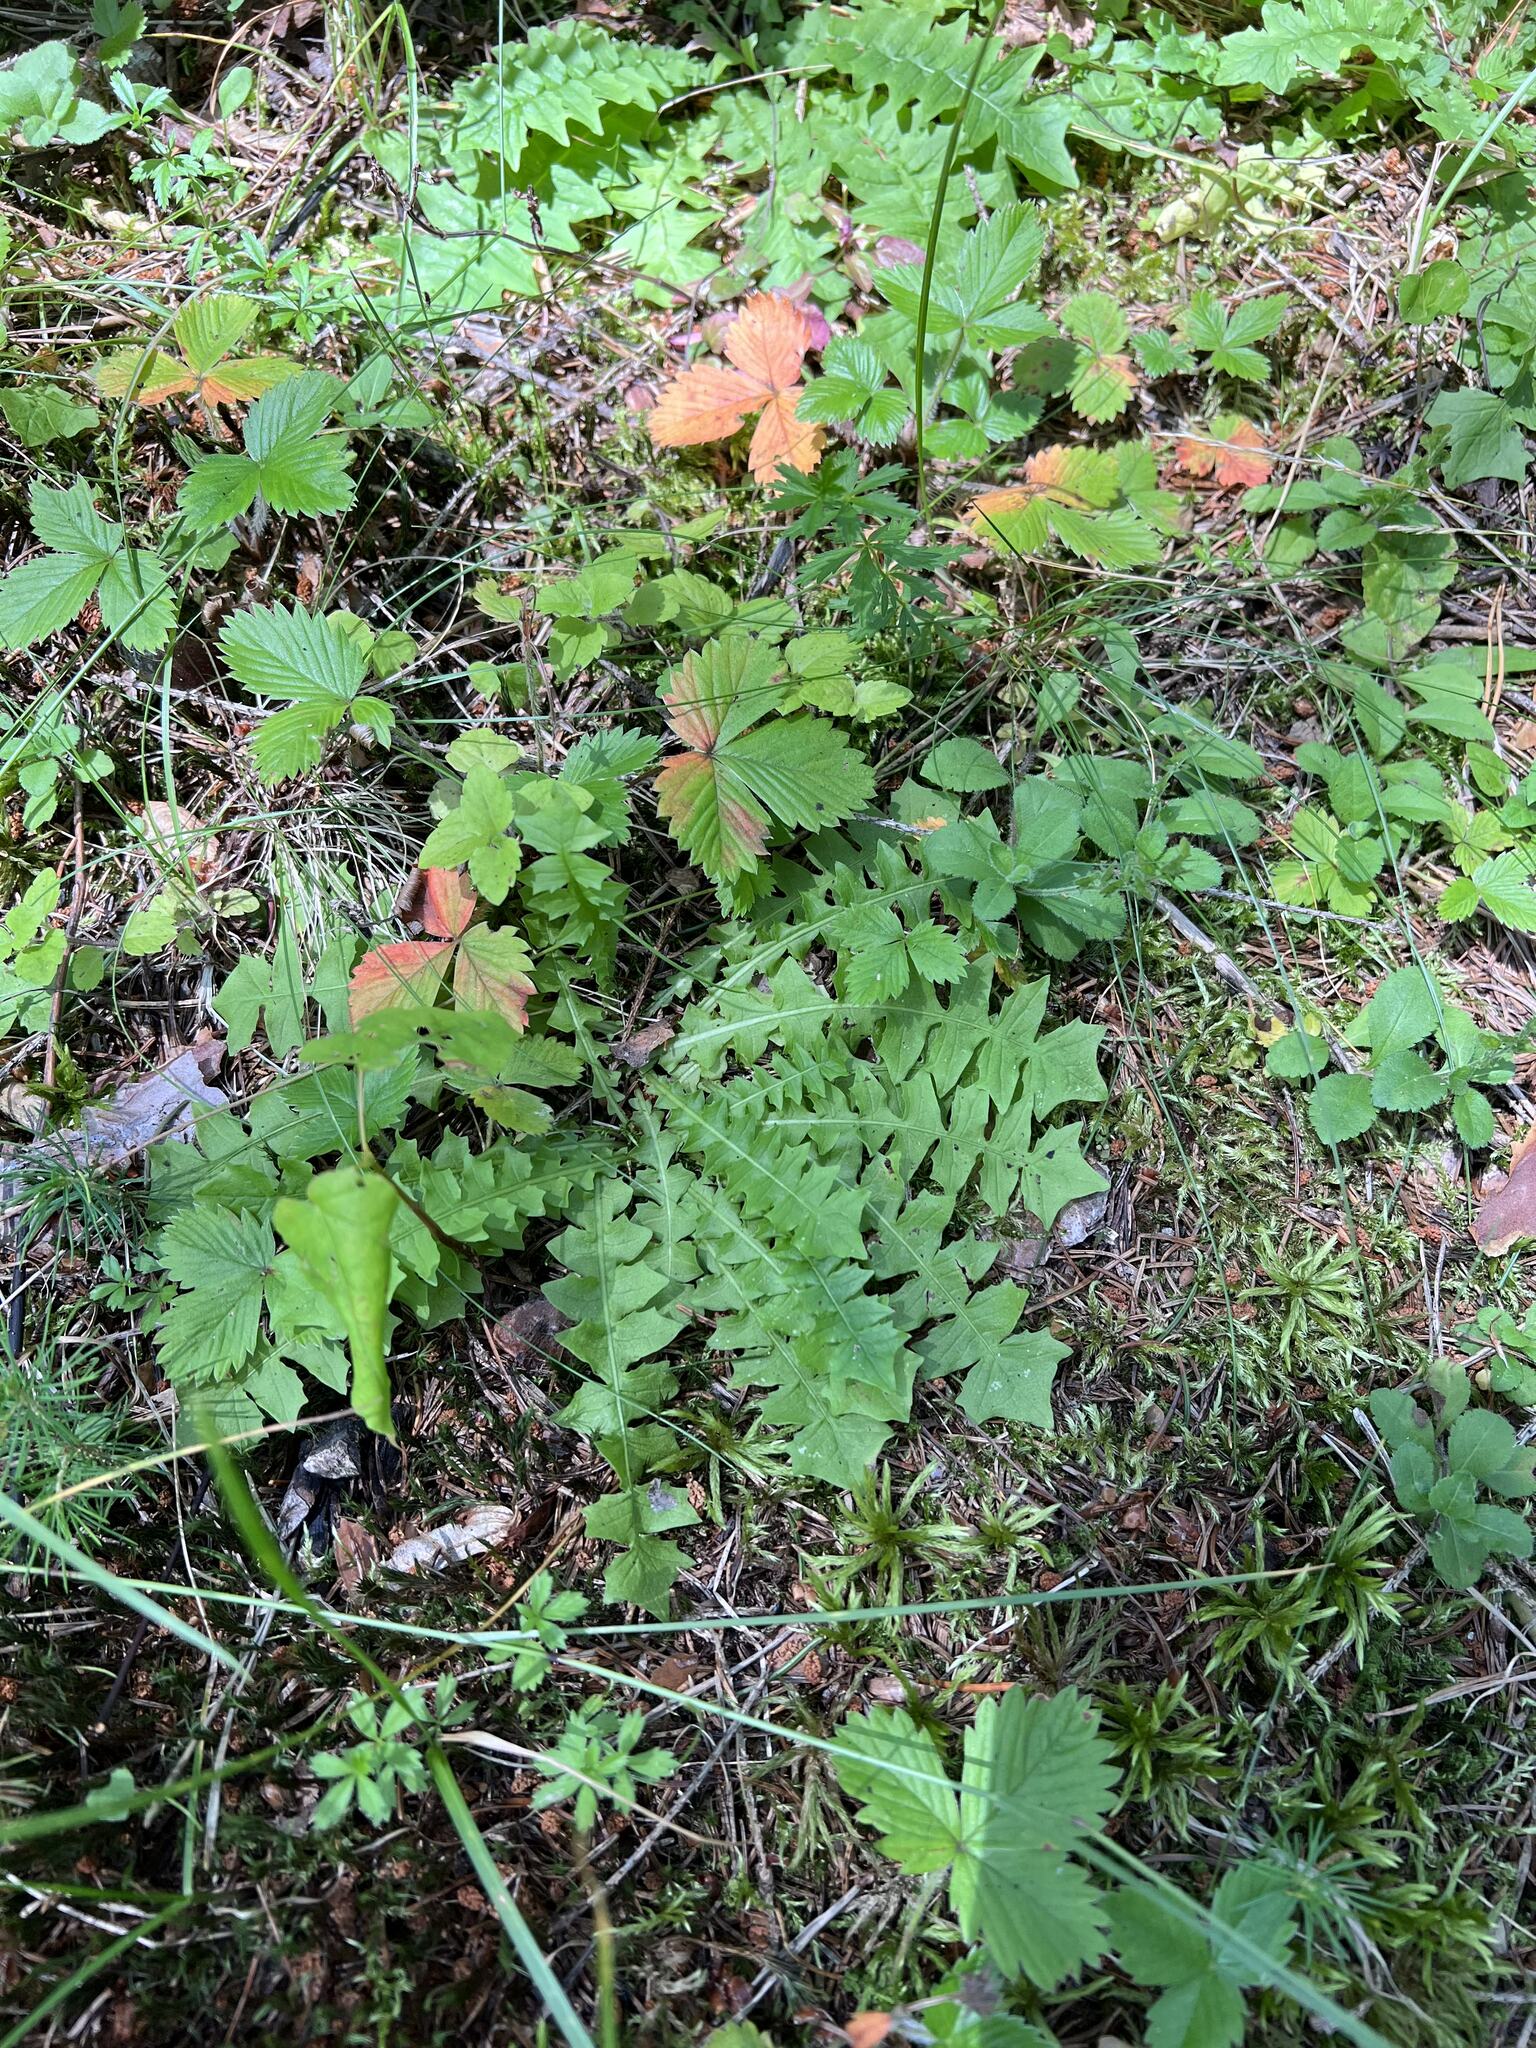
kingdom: Plantae
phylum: Tracheophyta
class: Magnoliopsida
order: Asterales
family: Asteraceae
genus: Aposeris
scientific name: Aposeris foetida
